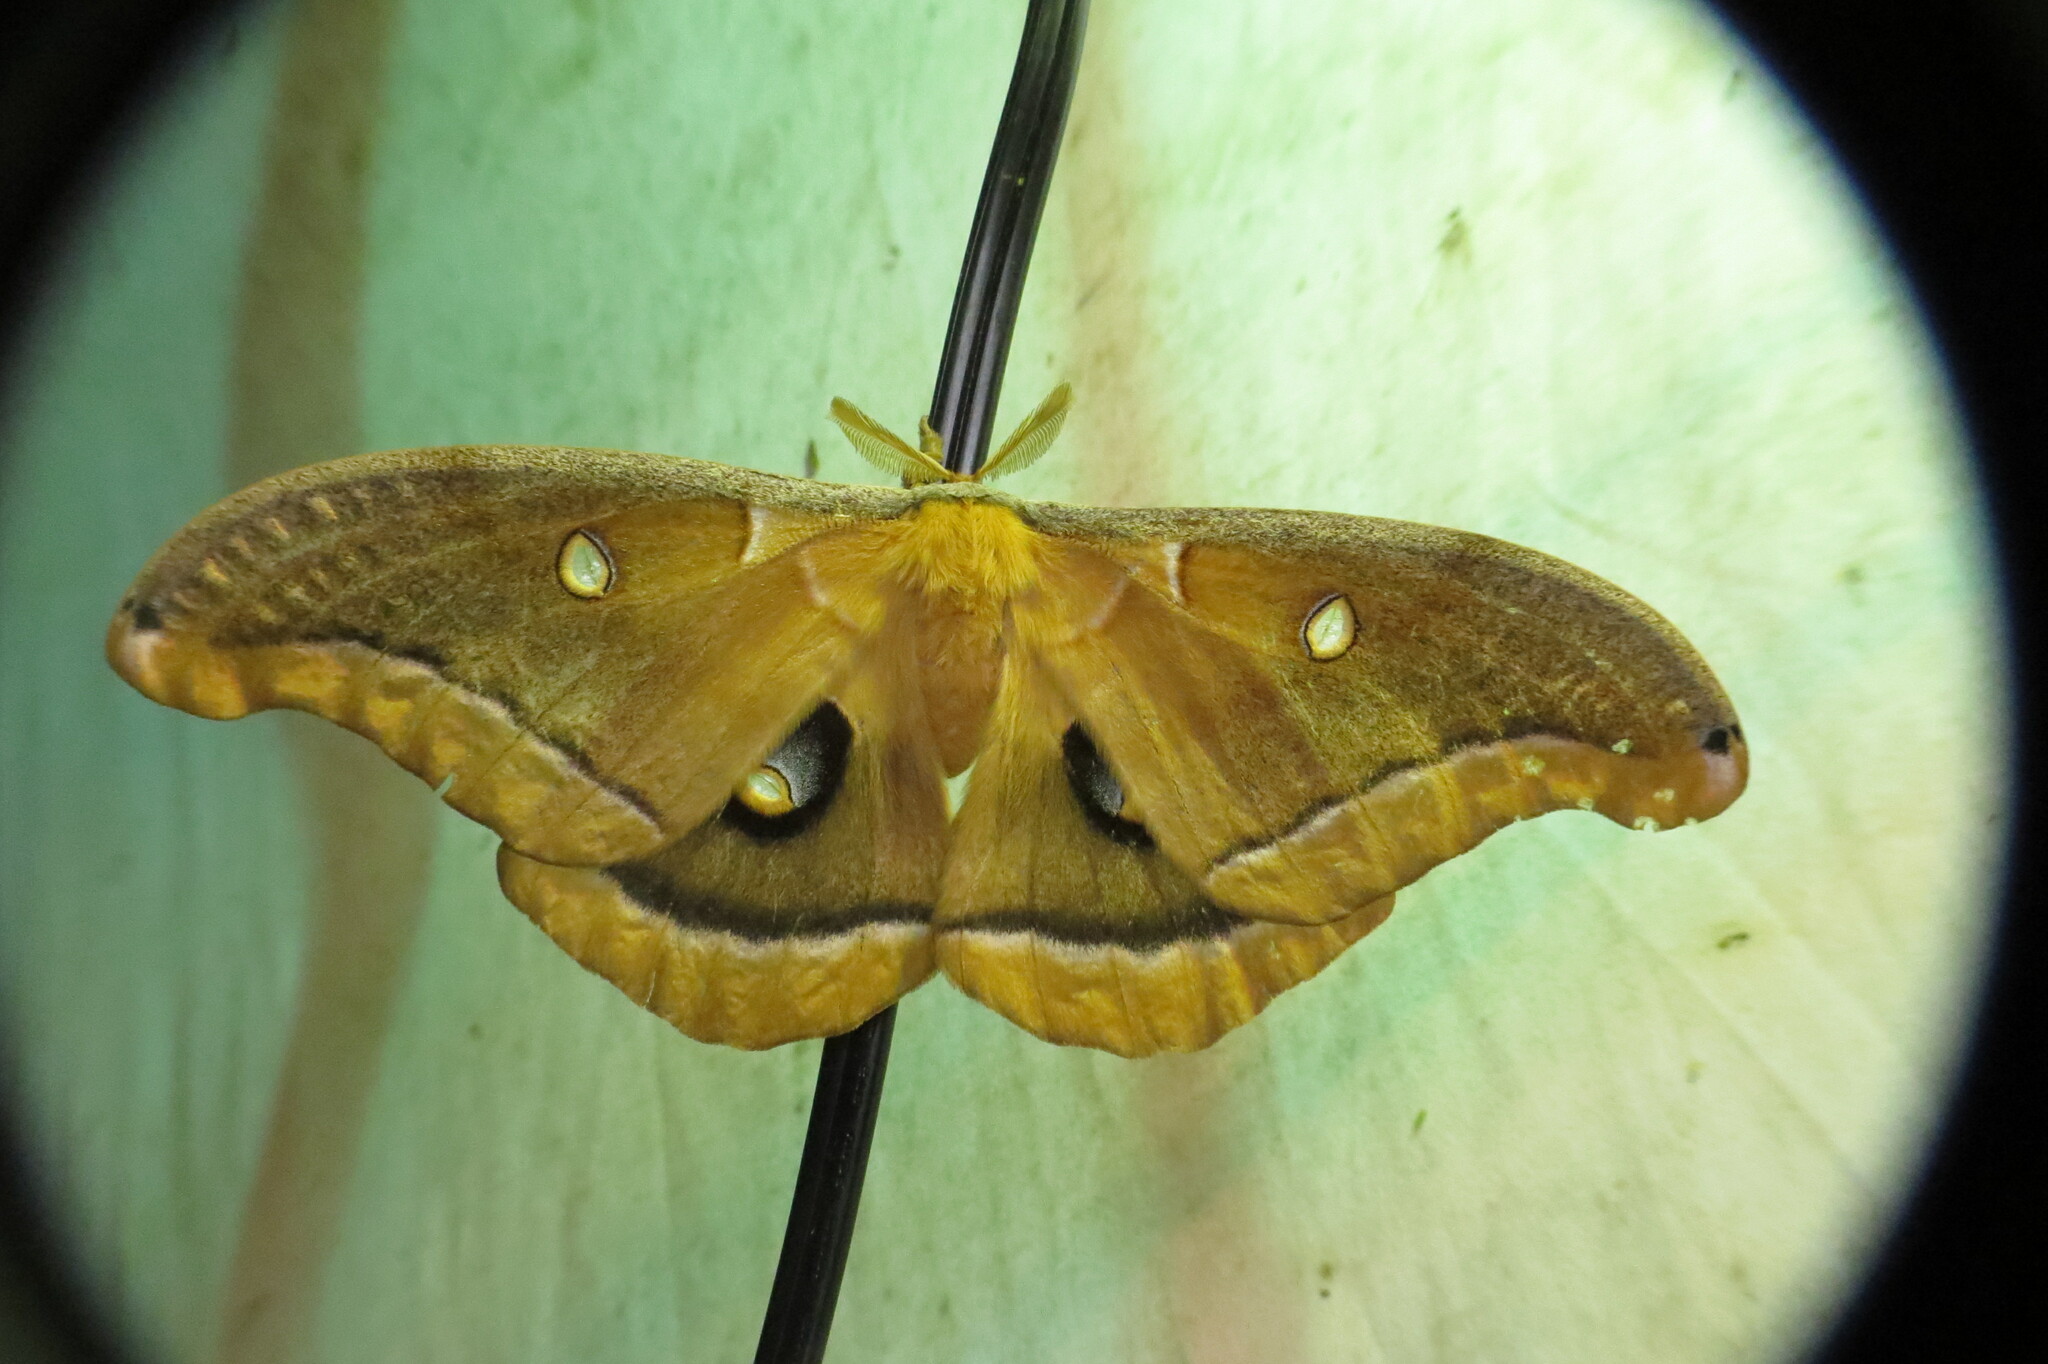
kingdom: Animalia
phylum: Arthropoda
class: Insecta
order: Lepidoptera
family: Saturniidae
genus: Antheraea
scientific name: Antheraea polyphemus
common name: Polyphemus moth
